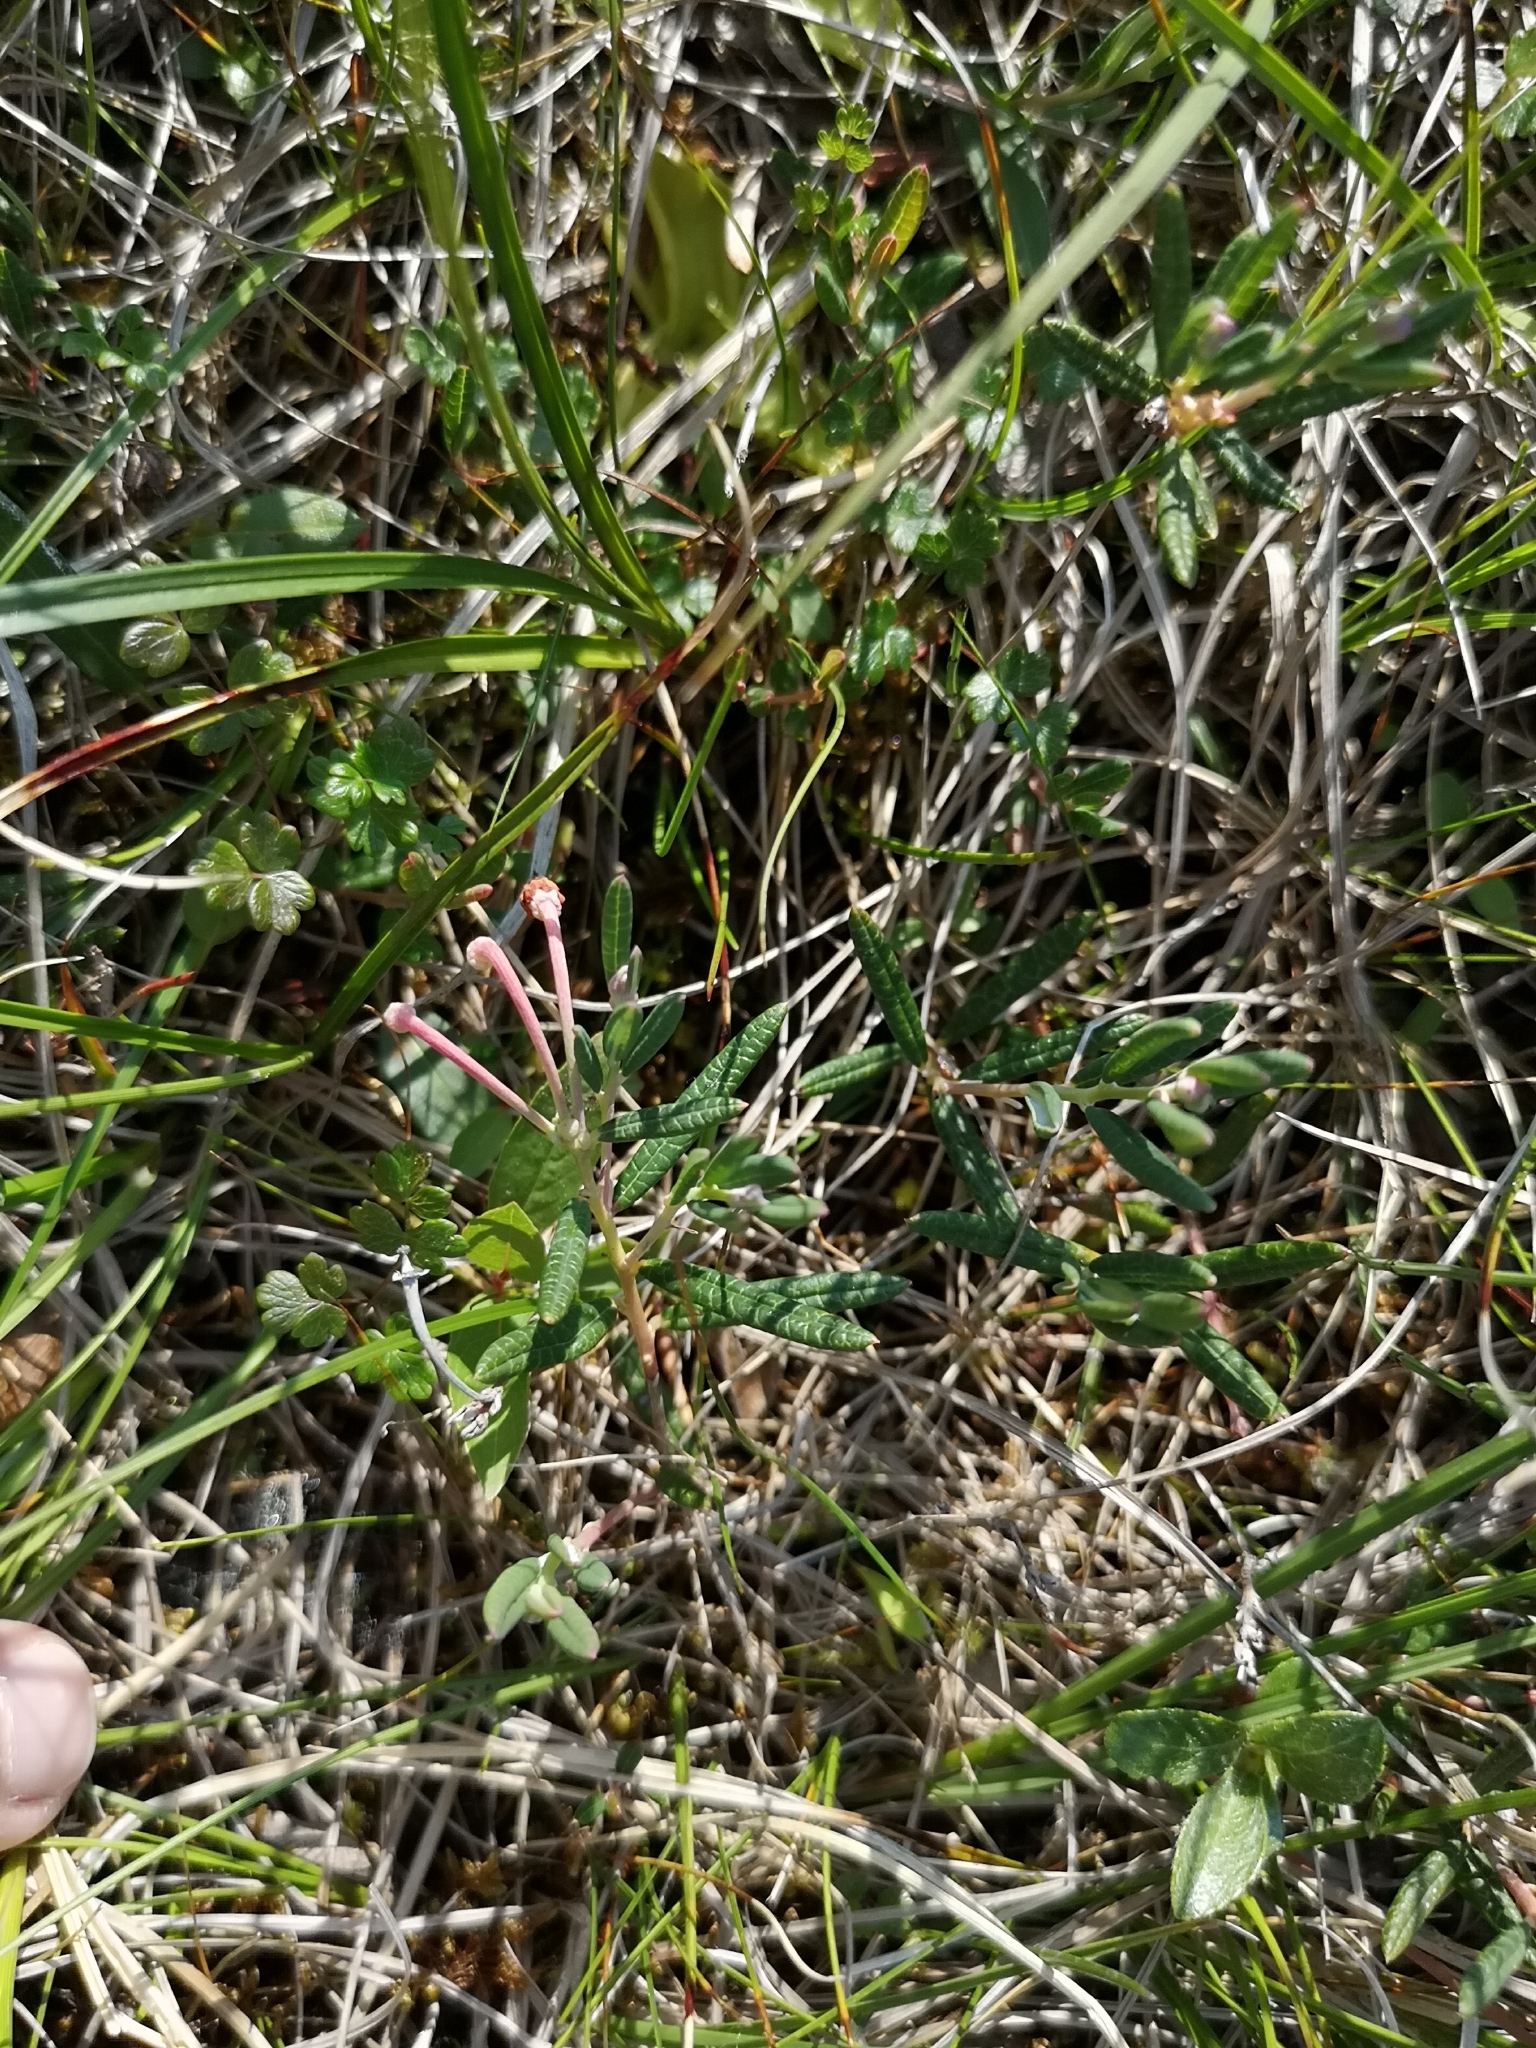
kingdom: Plantae
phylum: Tracheophyta
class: Magnoliopsida
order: Ericales
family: Ericaceae
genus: Andromeda
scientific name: Andromeda polifolia
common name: Bog-rosemary
